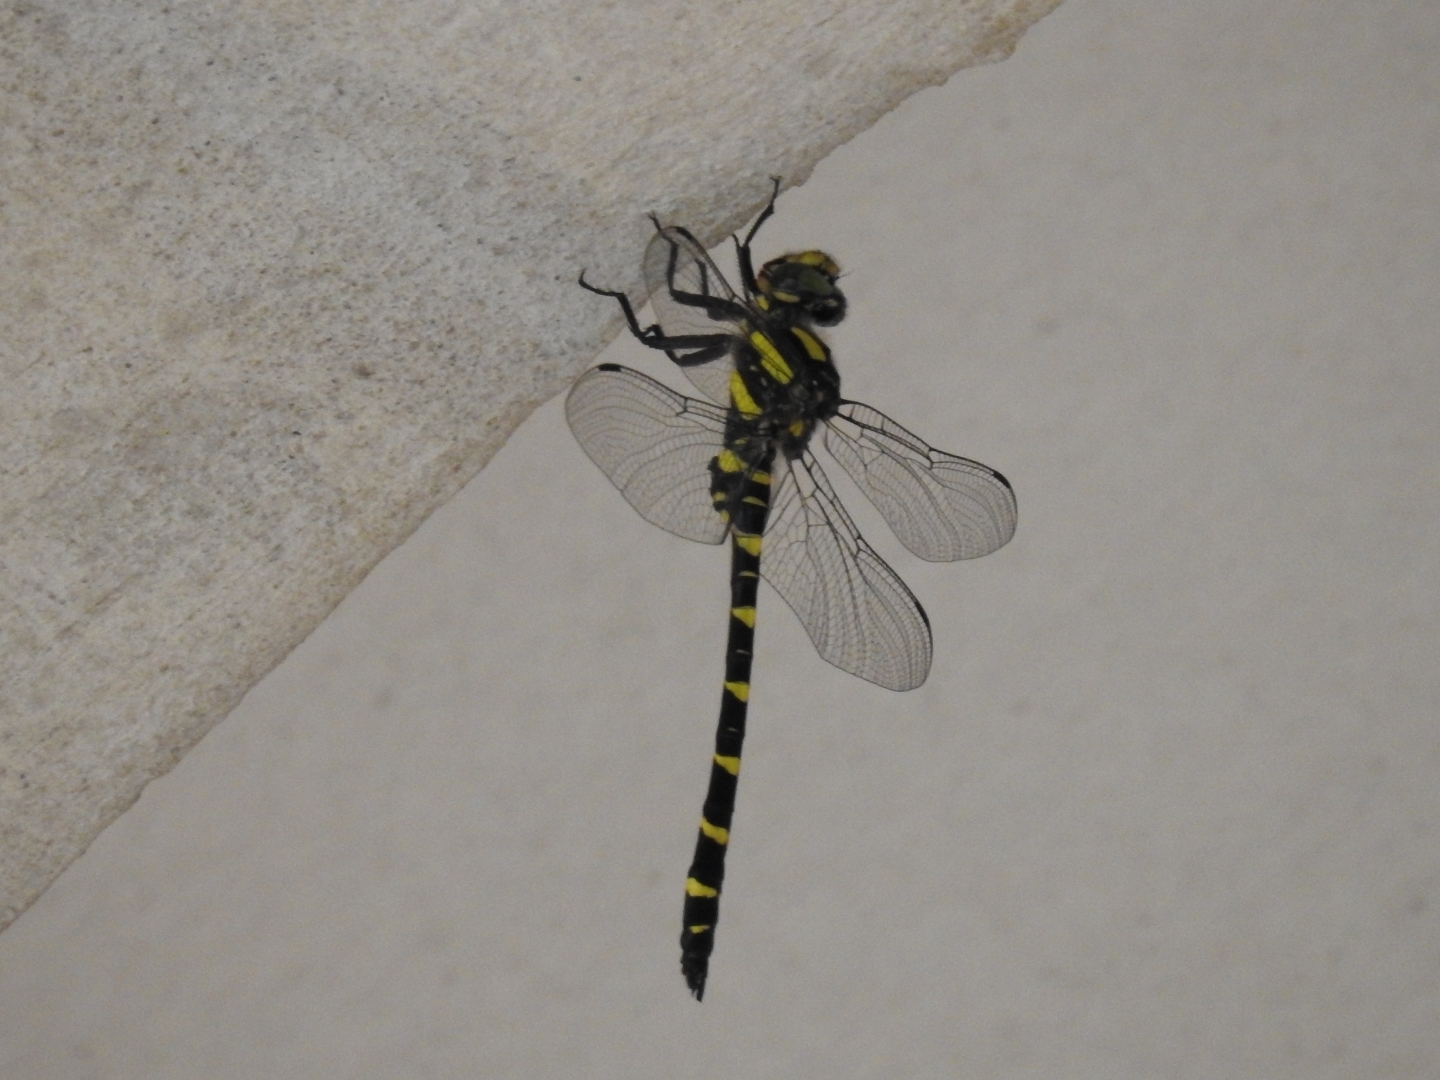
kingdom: Animalia
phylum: Arthropoda
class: Insecta
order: Odonata
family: Cordulegastridae
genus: Cordulegaster
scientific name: Cordulegaster bidentata
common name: Sombre goldenring
